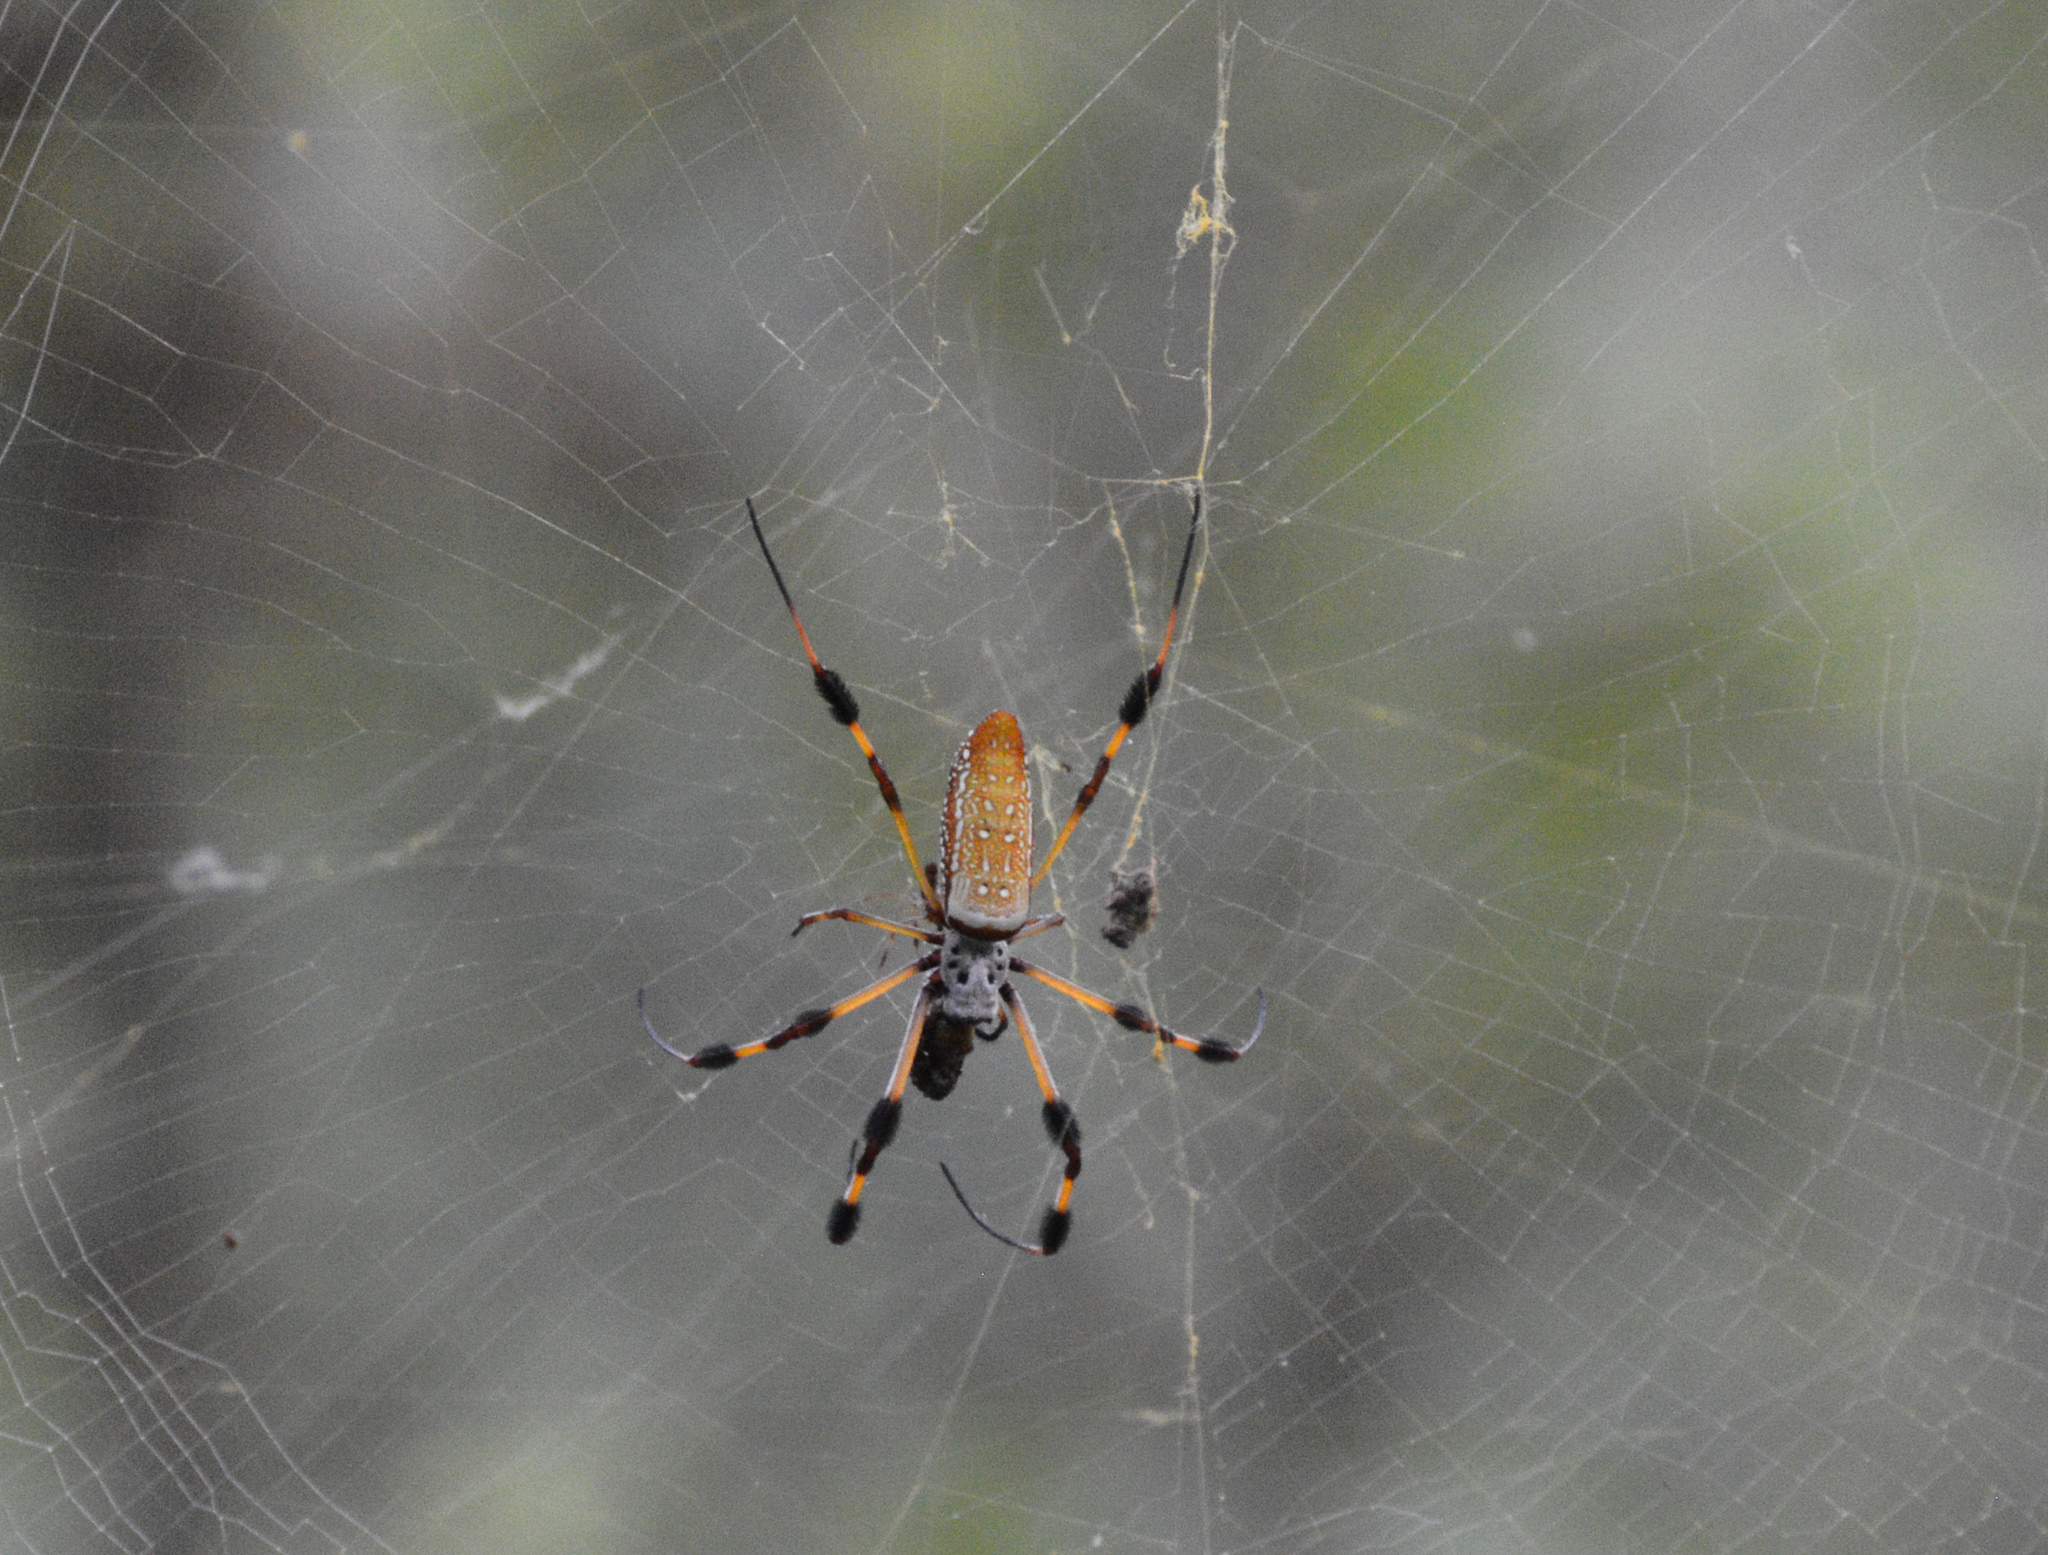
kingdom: Animalia
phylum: Arthropoda
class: Arachnida
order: Araneae
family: Araneidae
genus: Trichonephila
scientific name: Trichonephila clavipes
